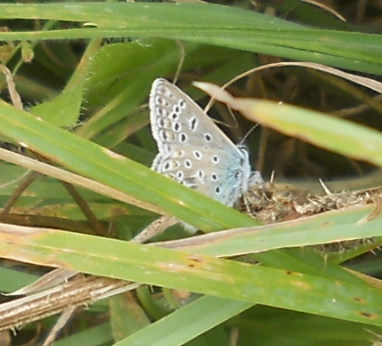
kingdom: Animalia
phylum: Arthropoda
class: Insecta
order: Lepidoptera
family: Lycaenidae
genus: Polyommatus
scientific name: Polyommatus icarus
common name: Common blue
